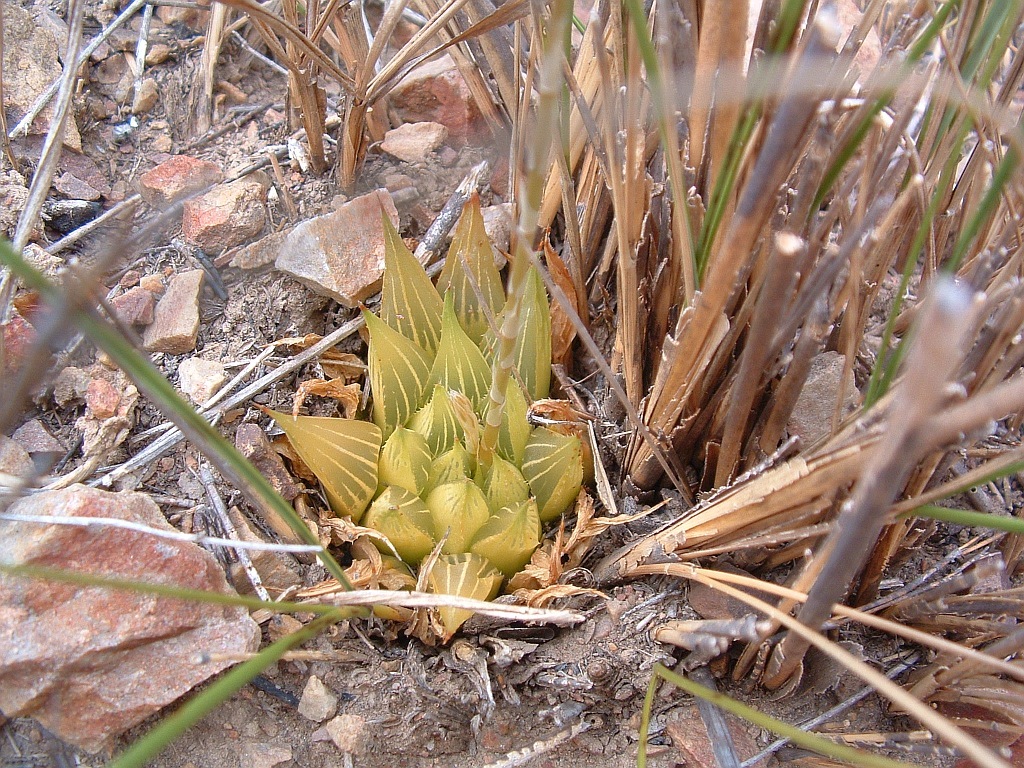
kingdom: Plantae
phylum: Tracheophyta
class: Liliopsida
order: Asparagales
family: Asphodelaceae
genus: Haworthia
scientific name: Haworthia mirabilis
